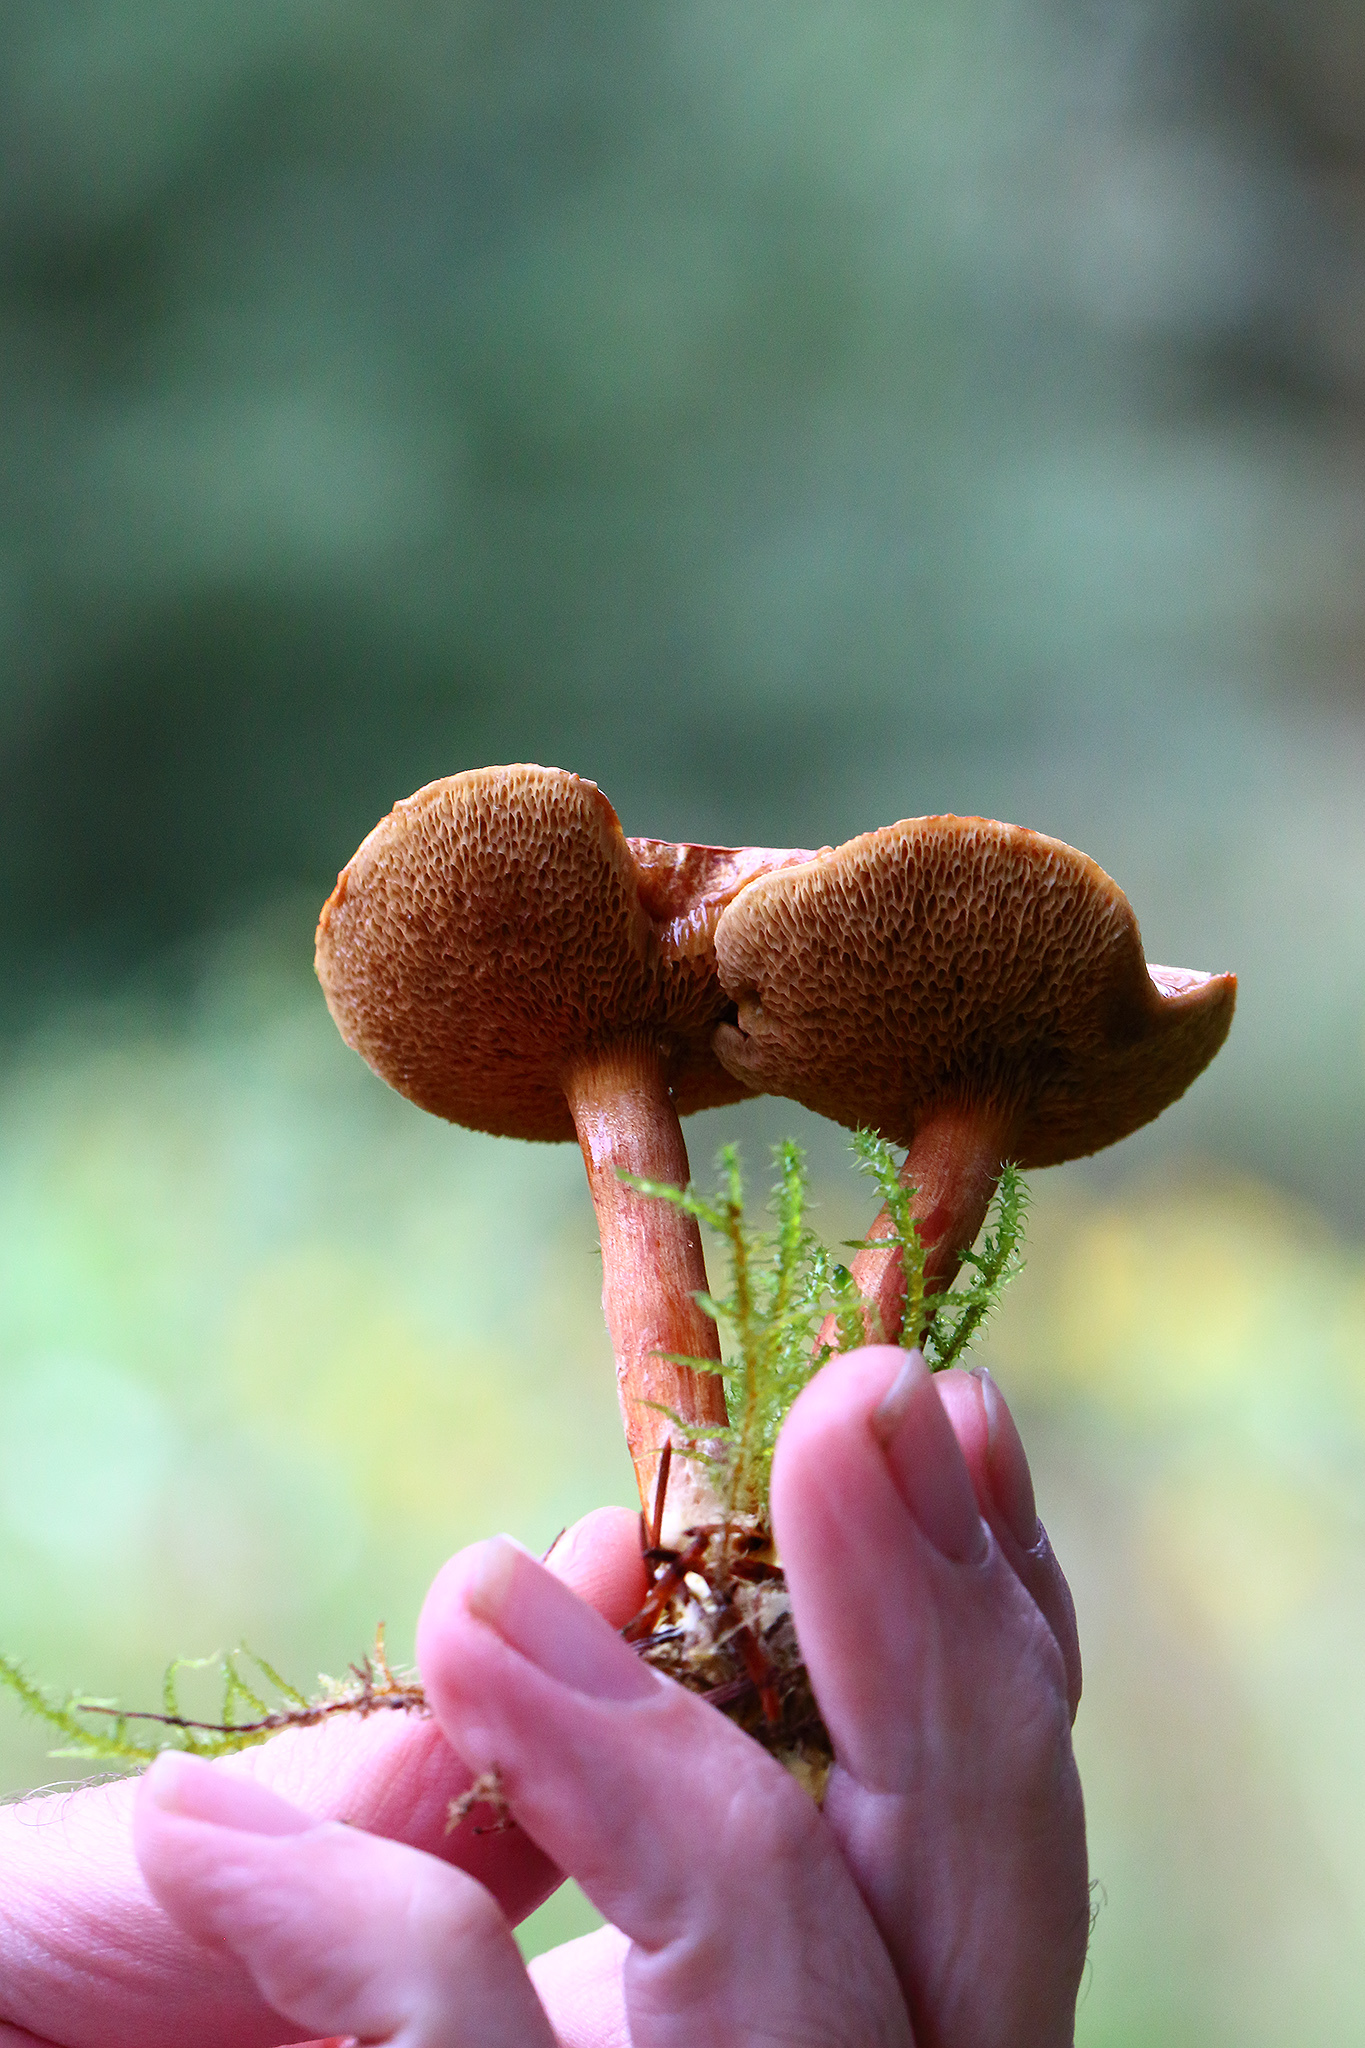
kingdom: Fungi
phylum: Basidiomycota
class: Agaricomycetes
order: Boletales
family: Boletaceae
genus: Chalciporus
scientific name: Chalciporus piperatus
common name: Peppery bolete
